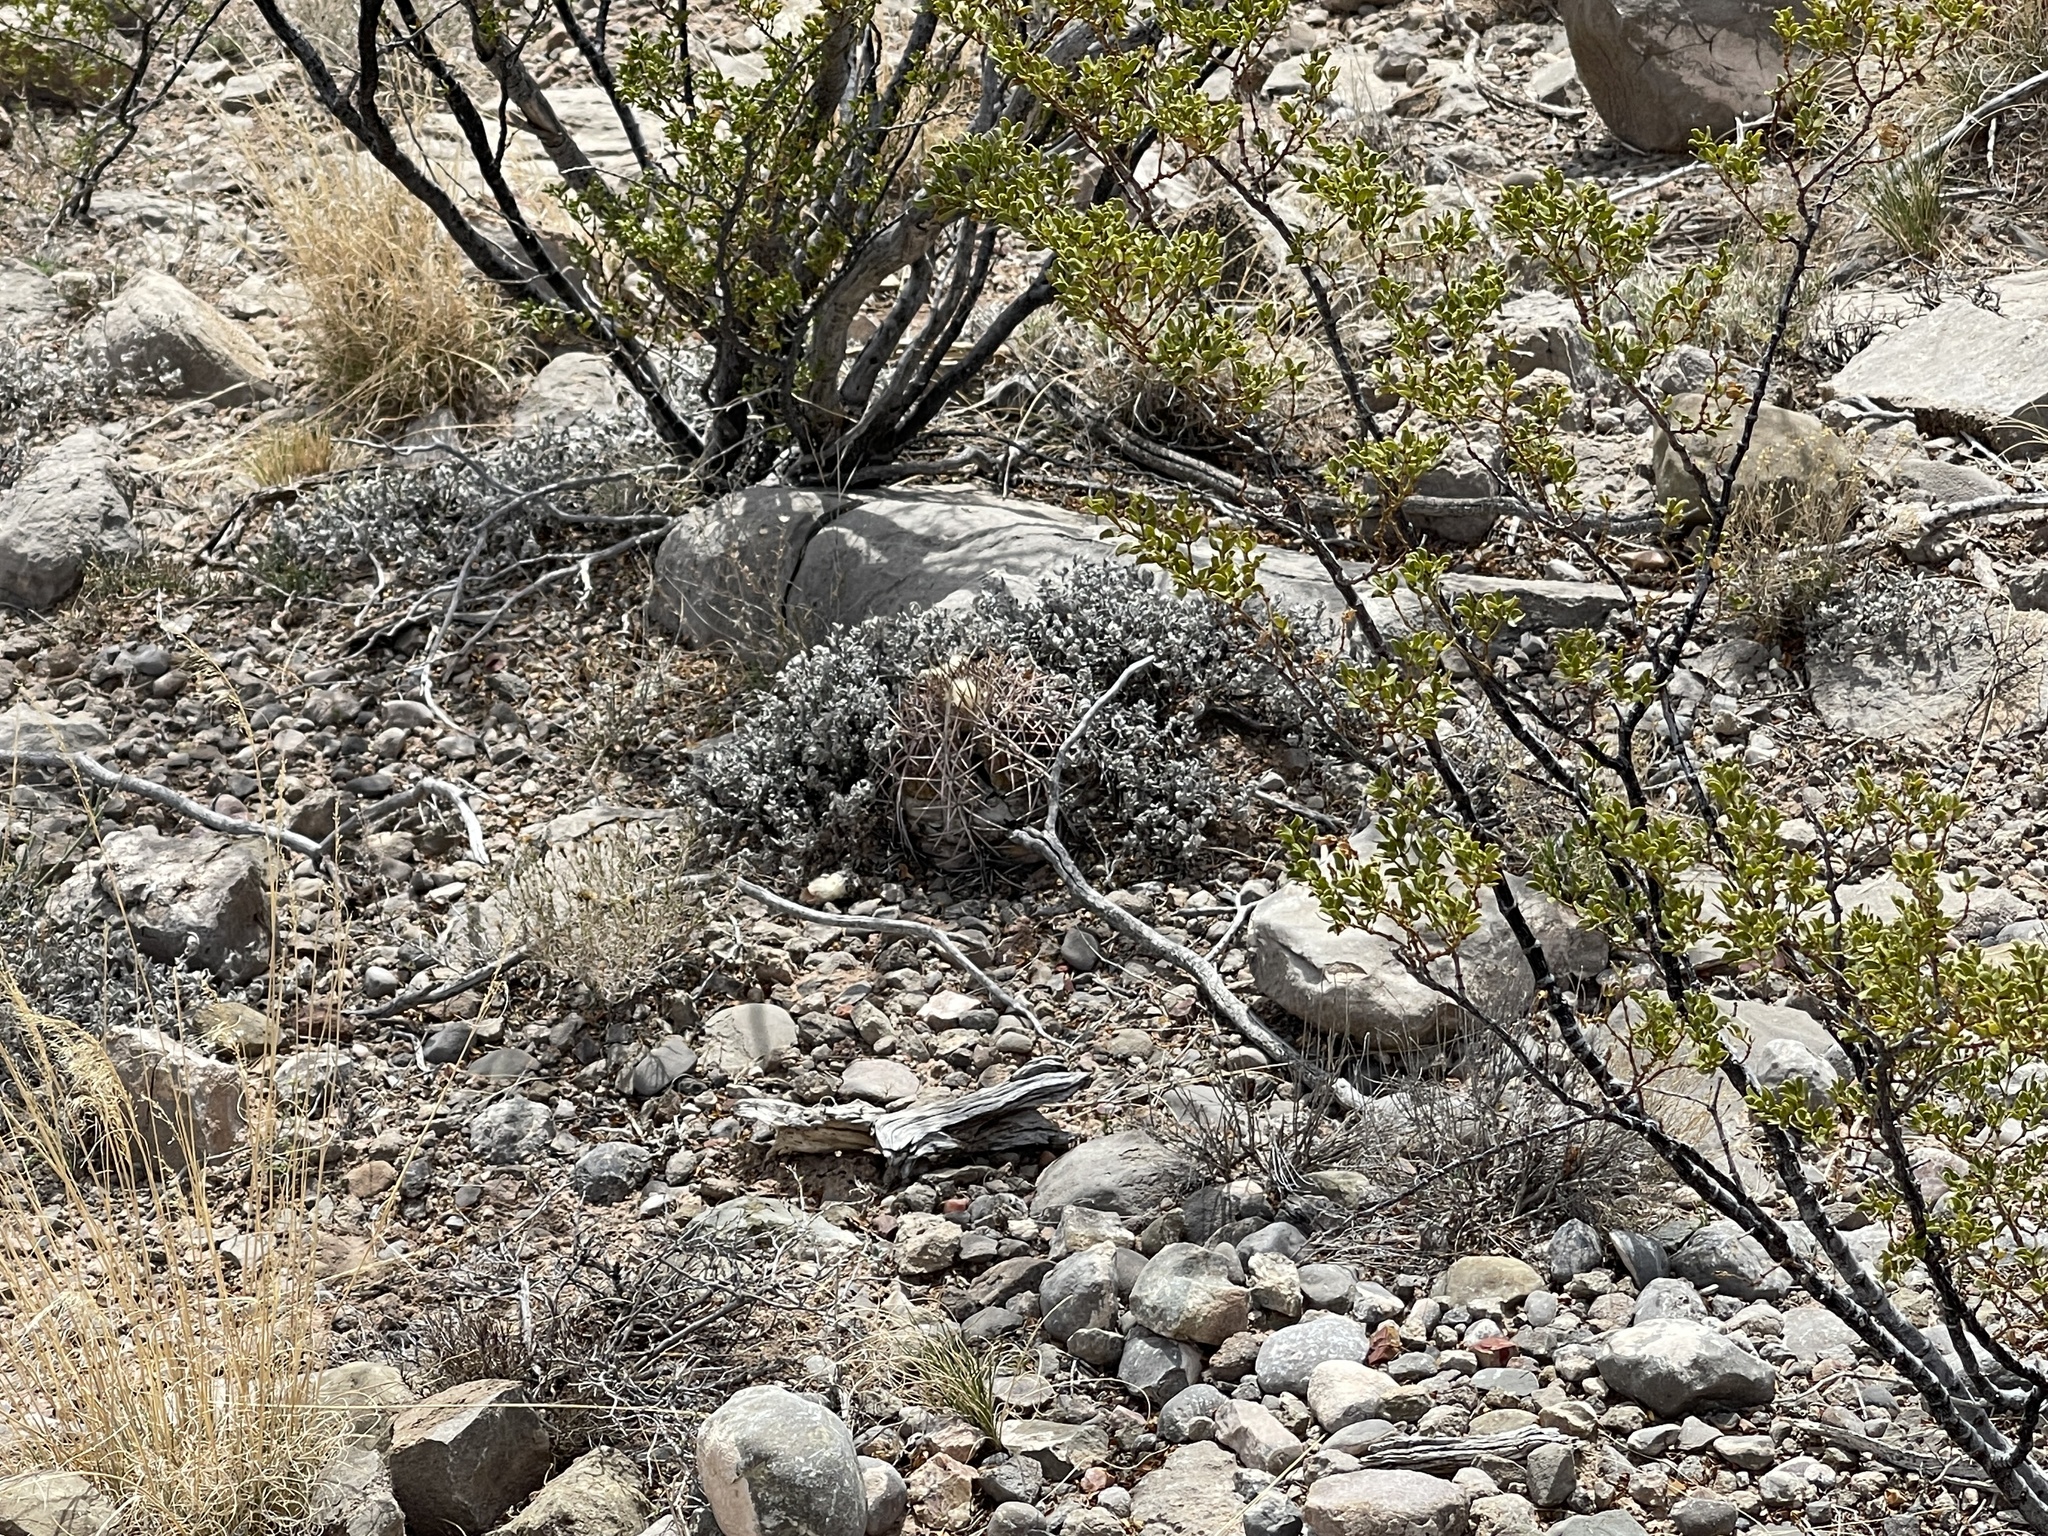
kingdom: Plantae
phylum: Tracheophyta
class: Magnoliopsida
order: Caryophyllales
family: Cactaceae
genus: Echinocactus
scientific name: Echinocactus horizonthalonius
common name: Devilshead
